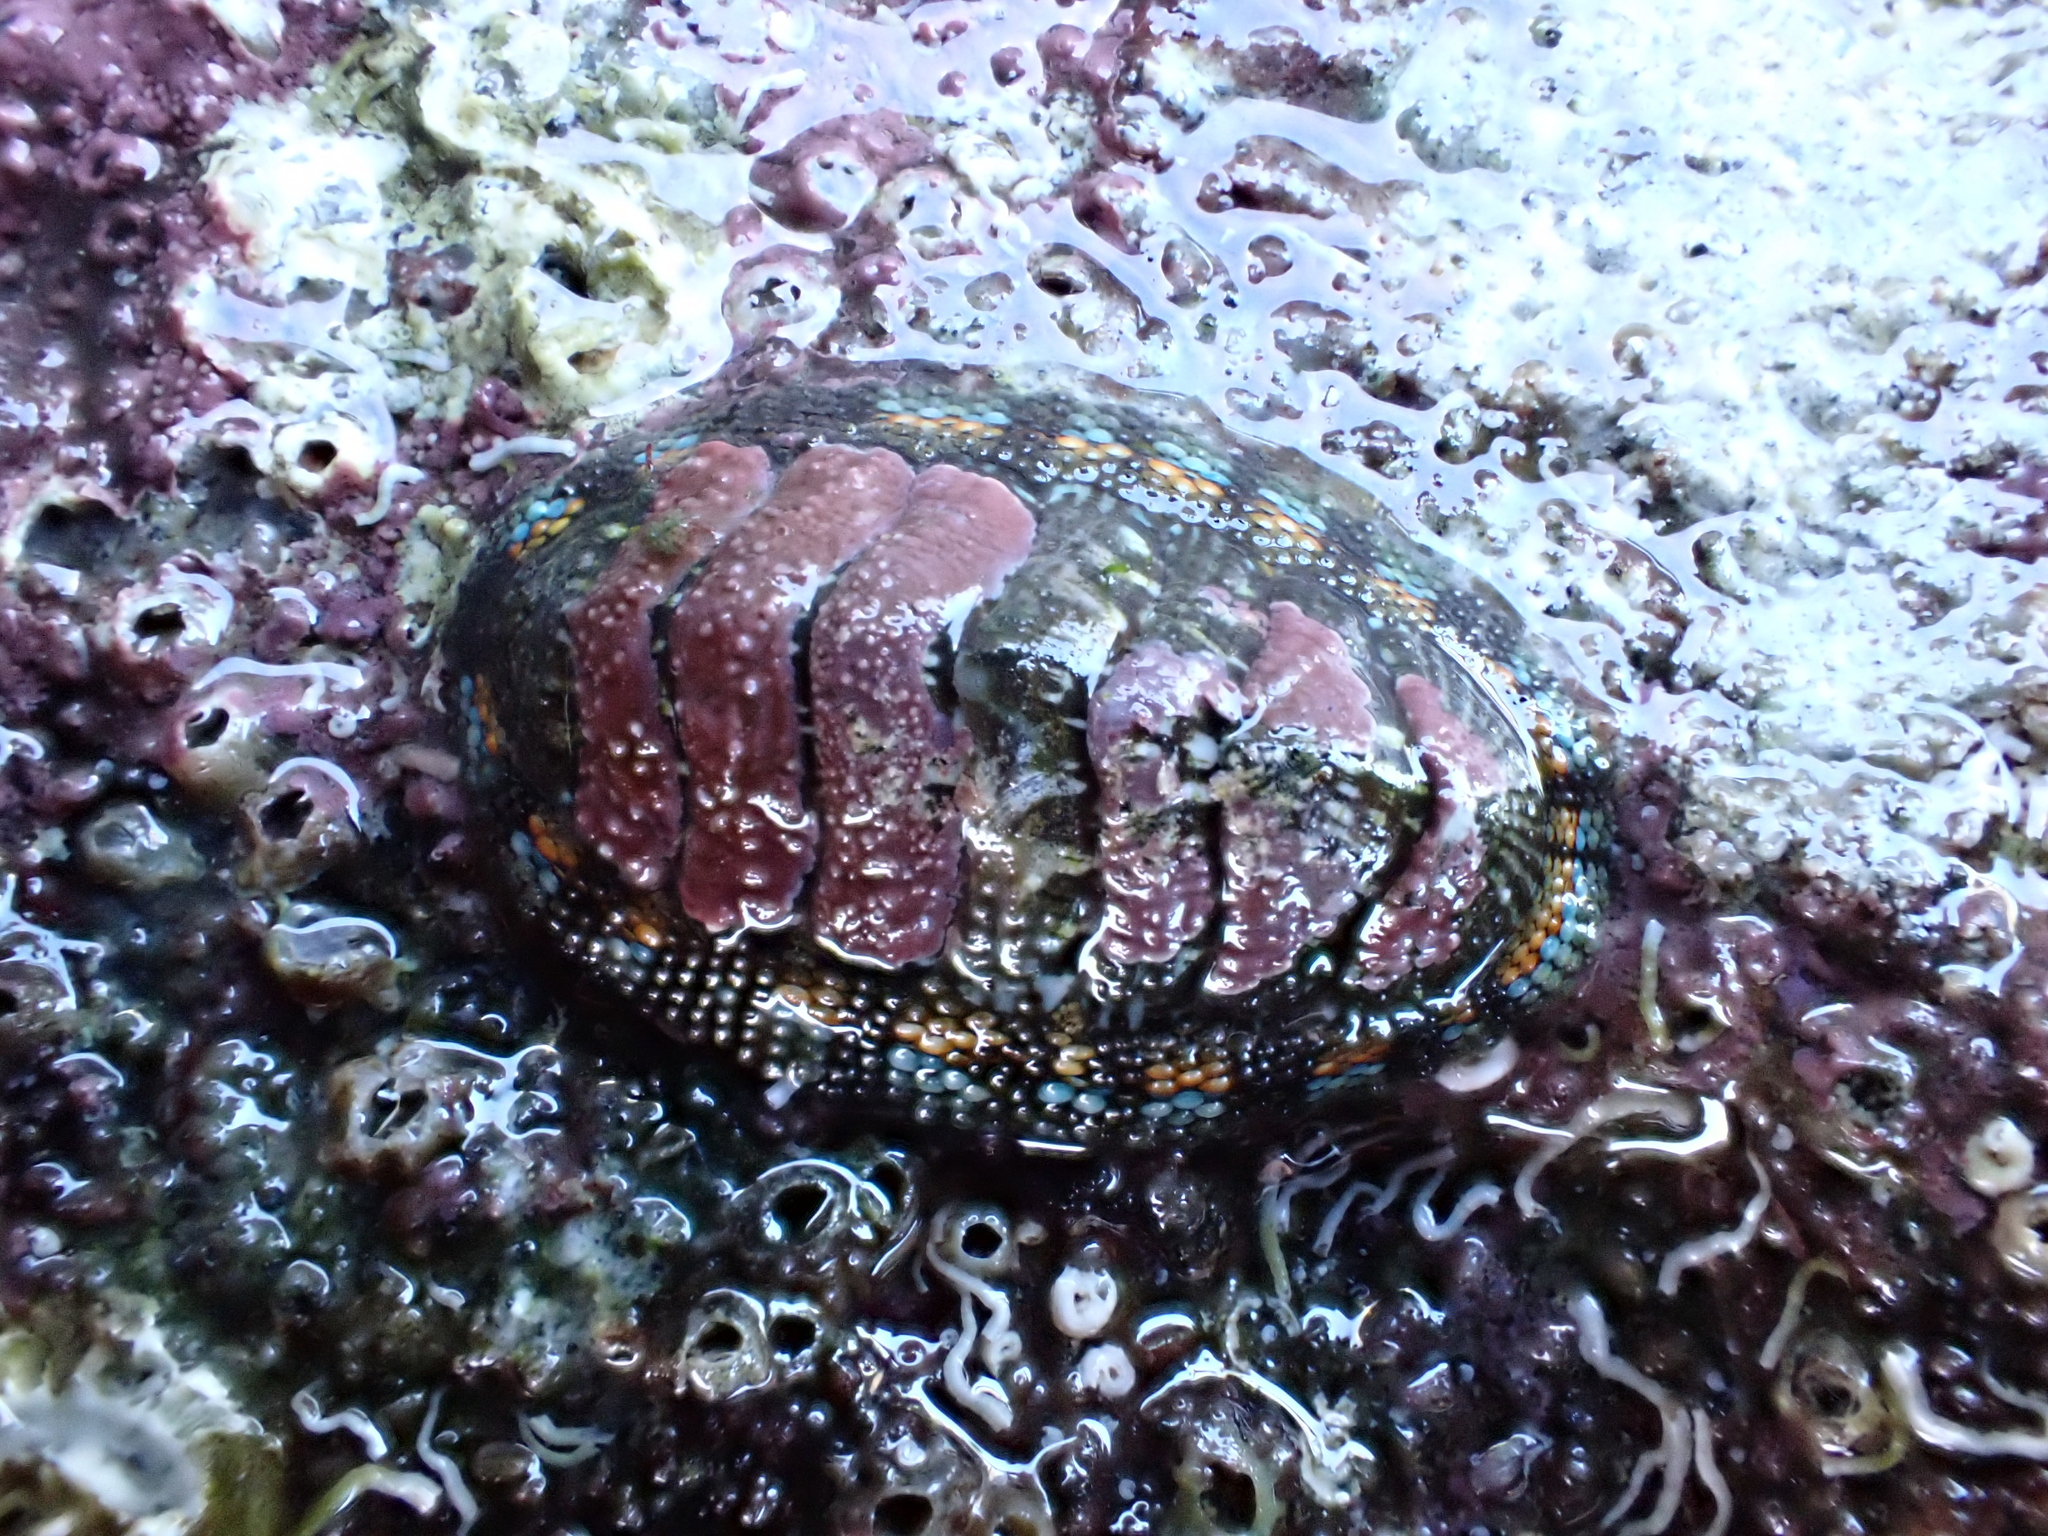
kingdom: Animalia
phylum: Mollusca
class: Polyplacophora
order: Chitonida
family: Chitonidae
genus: Sypharochiton
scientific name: Sypharochiton sinclairi
